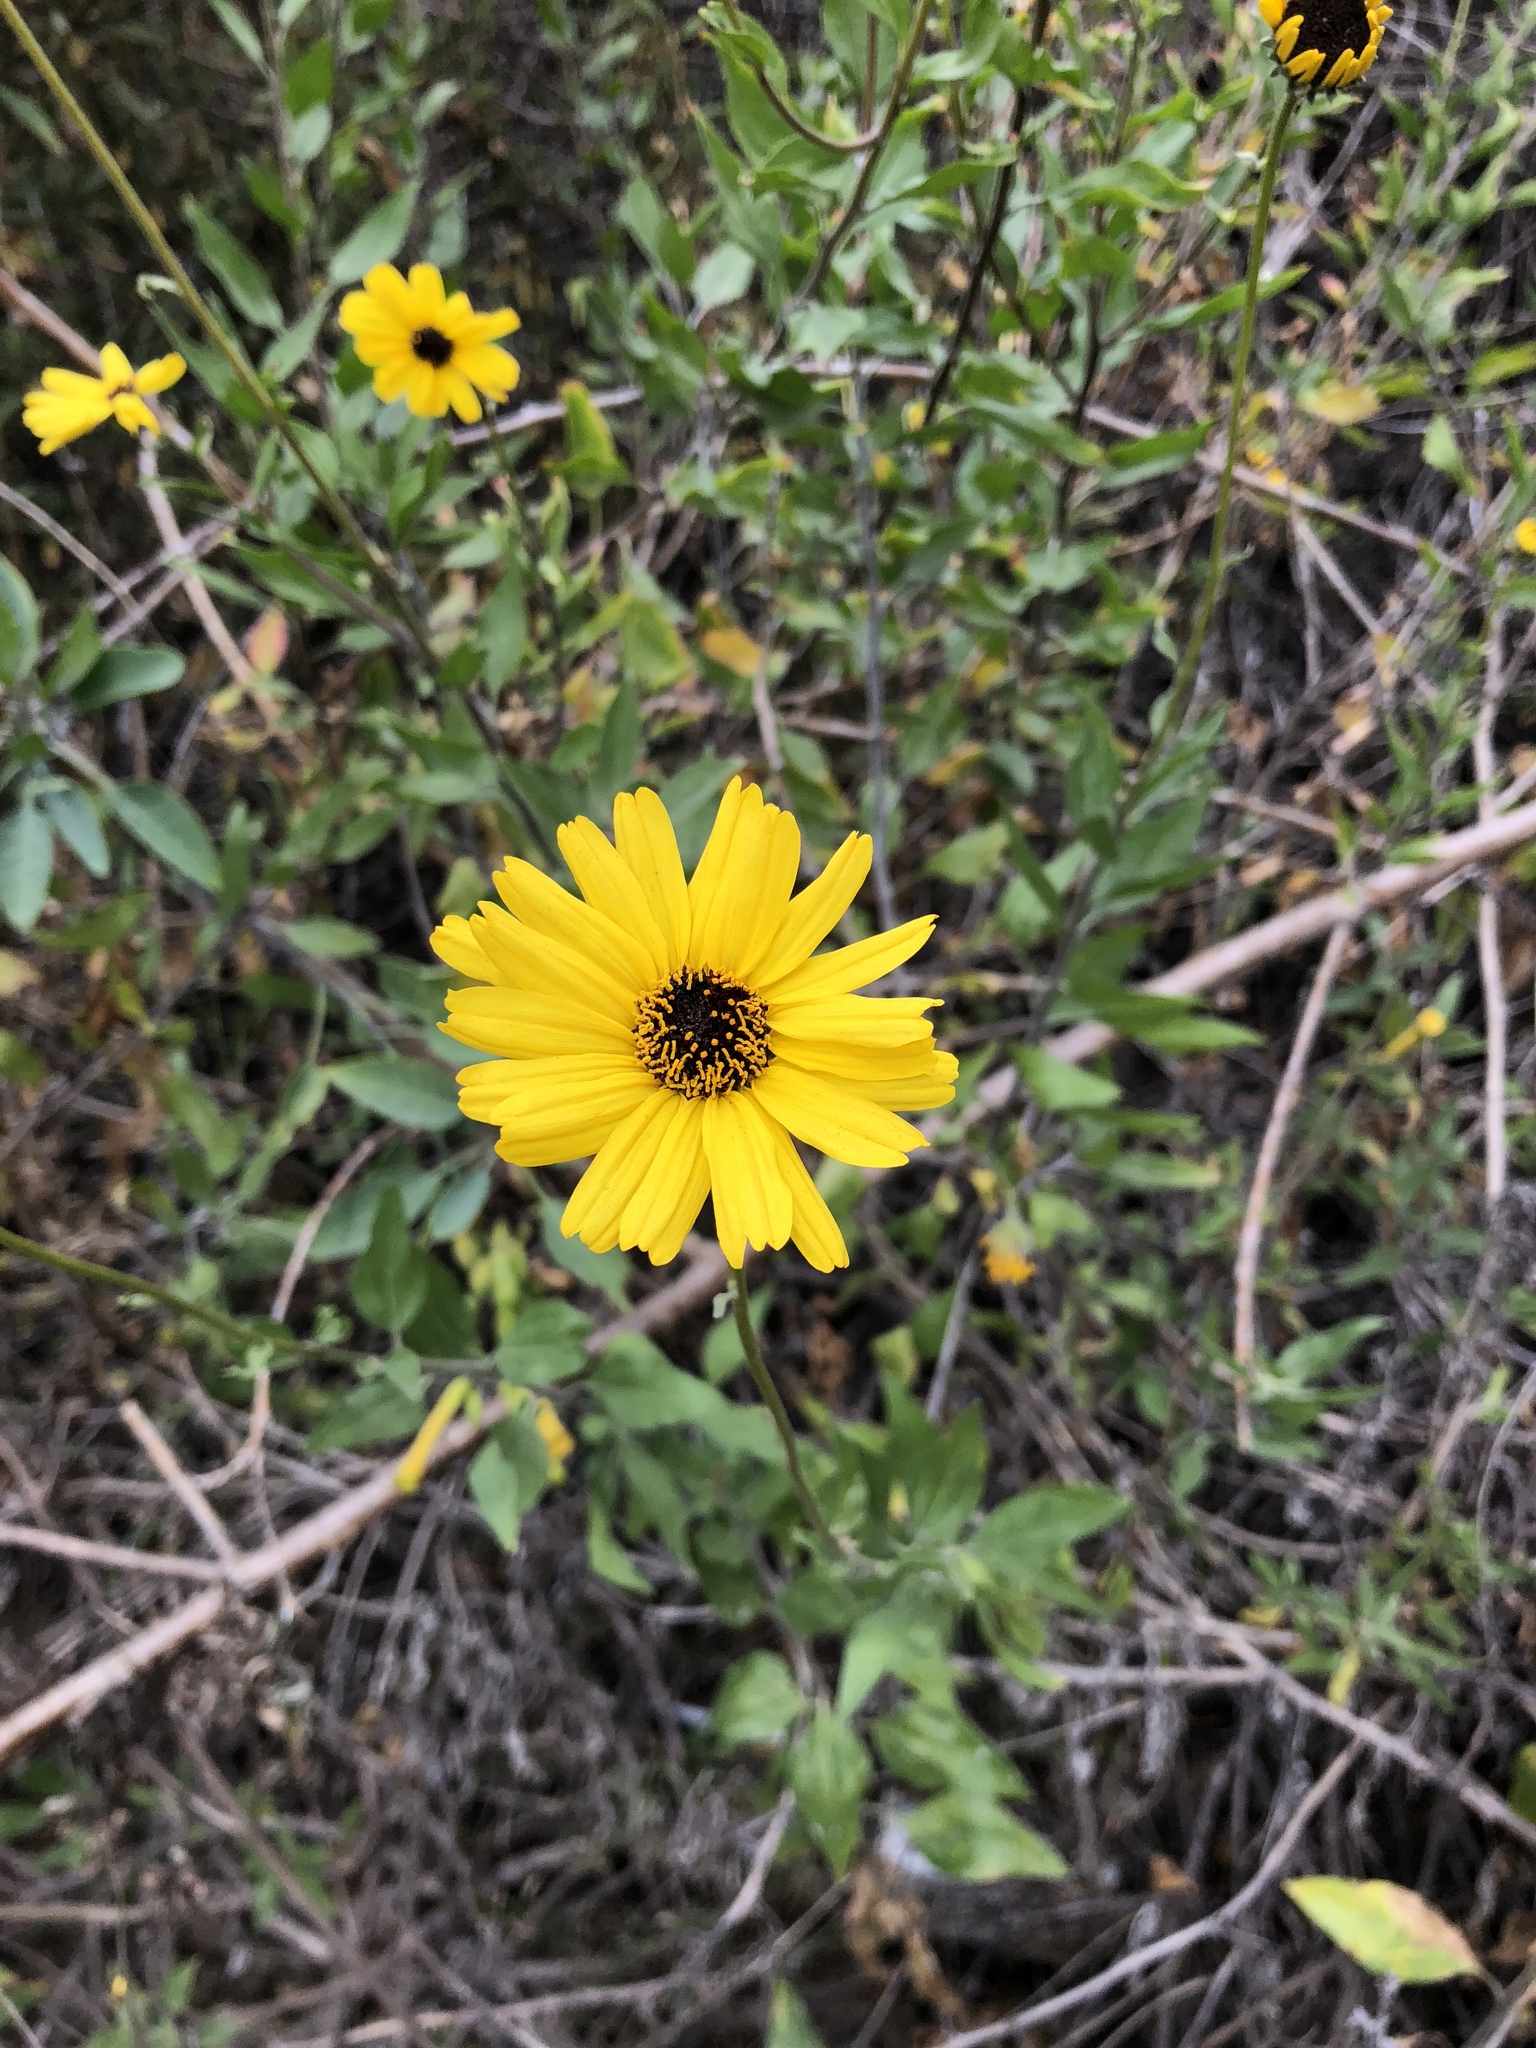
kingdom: Plantae
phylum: Tracheophyta
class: Magnoliopsida
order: Asterales
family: Asteraceae
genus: Encelia
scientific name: Encelia californica
